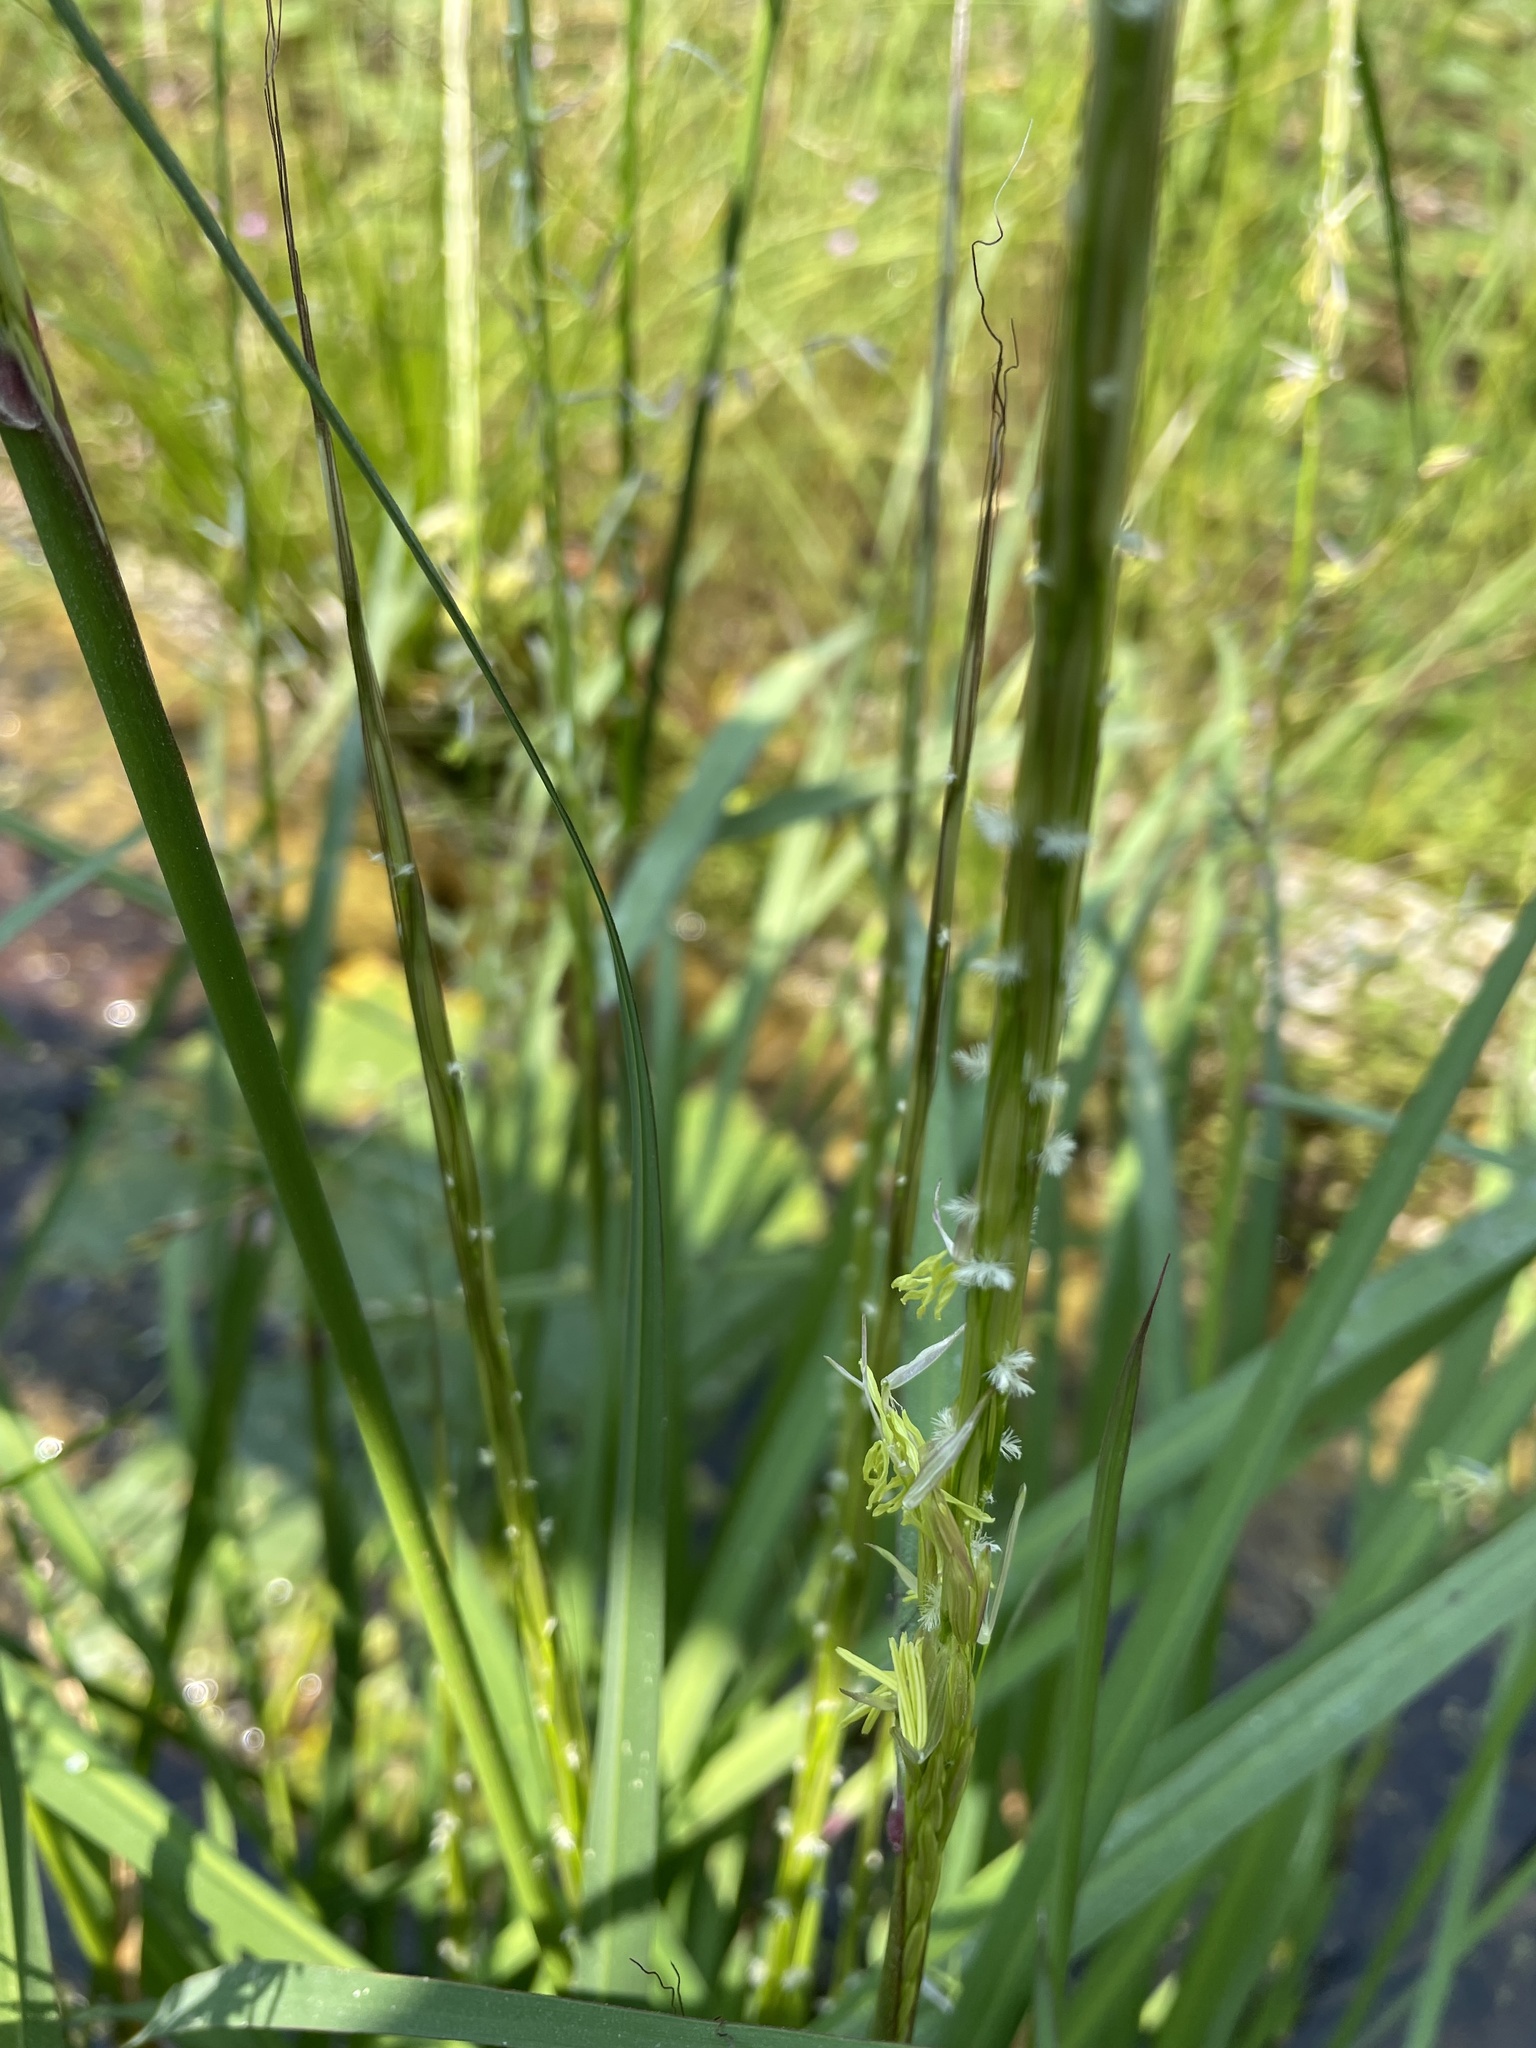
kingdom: Plantae
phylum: Tracheophyta
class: Liliopsida
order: Poales
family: Poaceae
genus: Zizania
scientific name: Zizania palustris
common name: Northern wild rice
